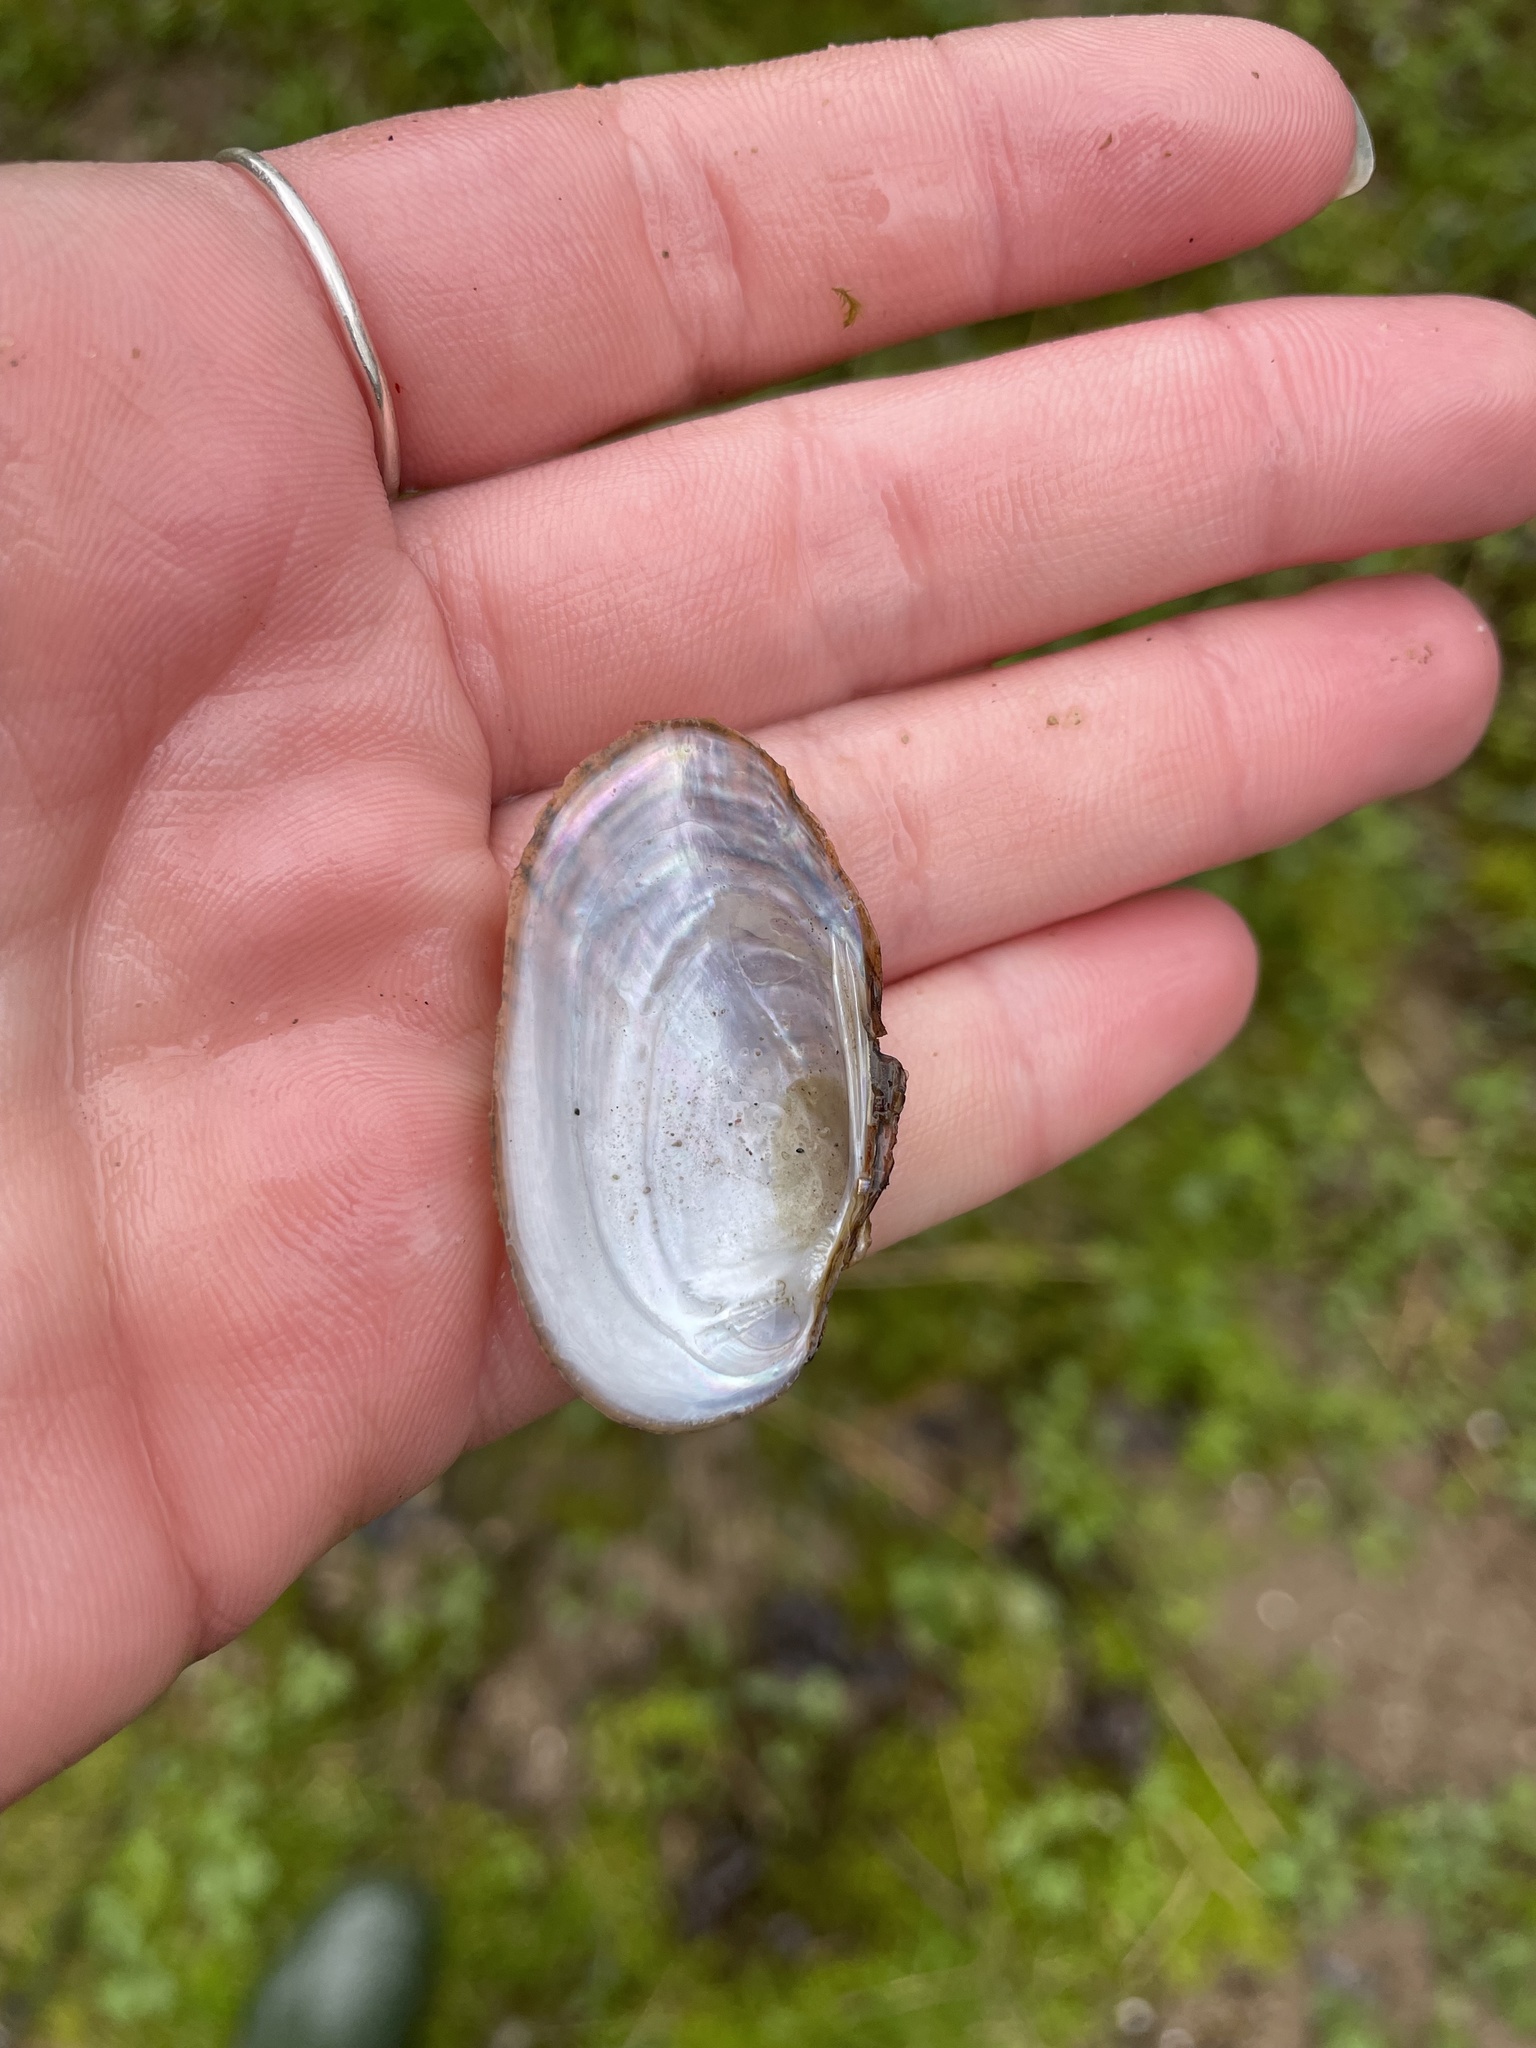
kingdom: Animalia
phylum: Mollusca
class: Bivalvia
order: Unionida
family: Unionidae
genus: Cambarunio
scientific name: Cambarunio iris
